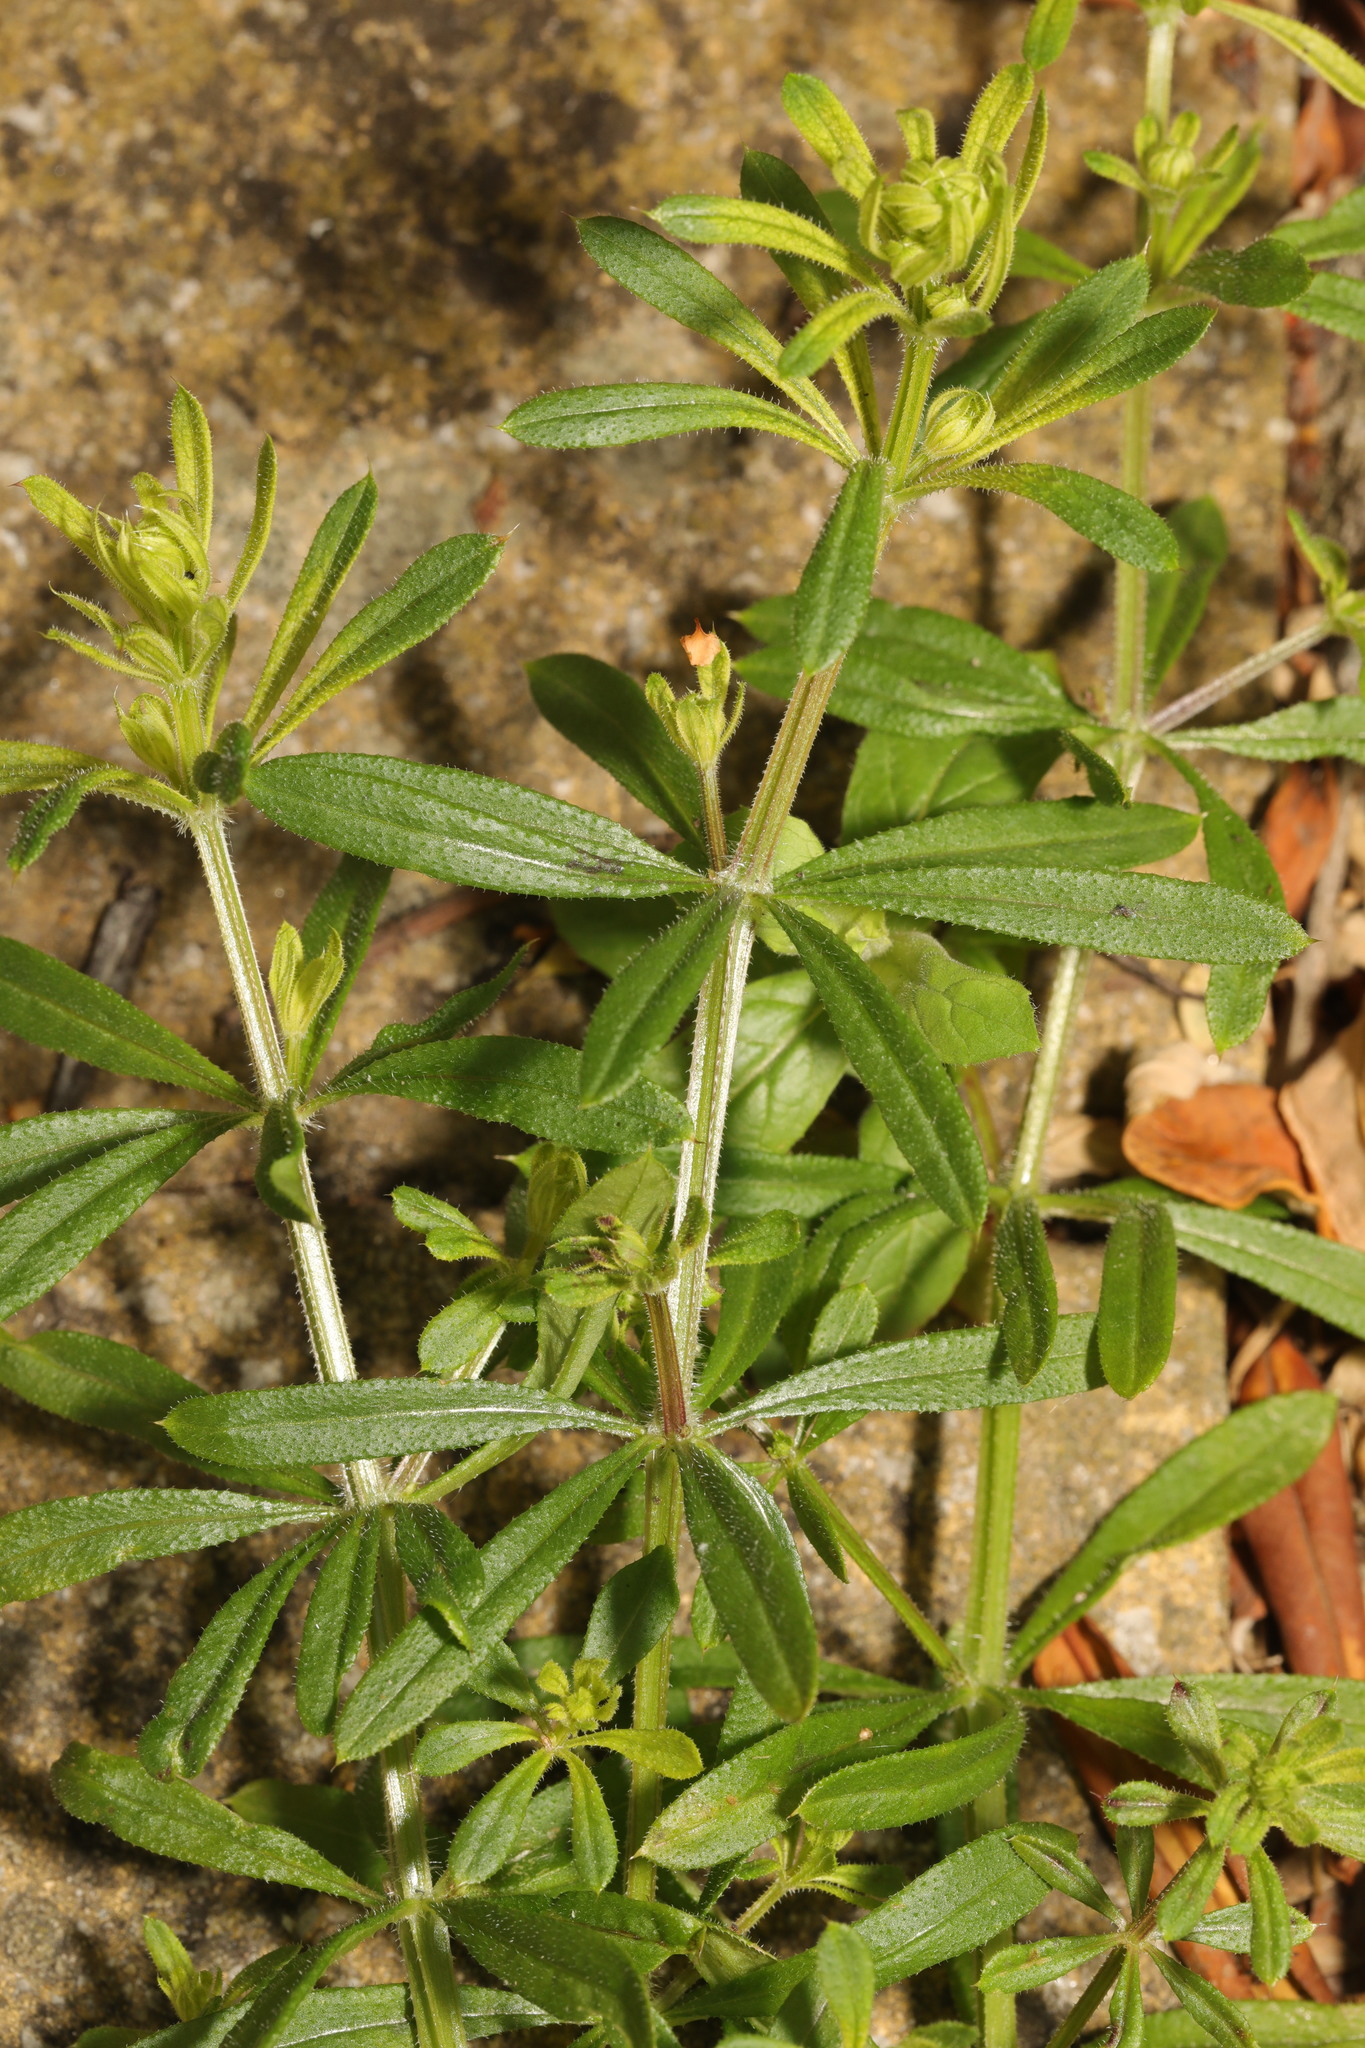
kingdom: Plantae
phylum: Tracheophyta
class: Magnoliopsida
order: Gentianales
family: Rubiaceae
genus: Galium
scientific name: Galium aparine
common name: Cleavers
